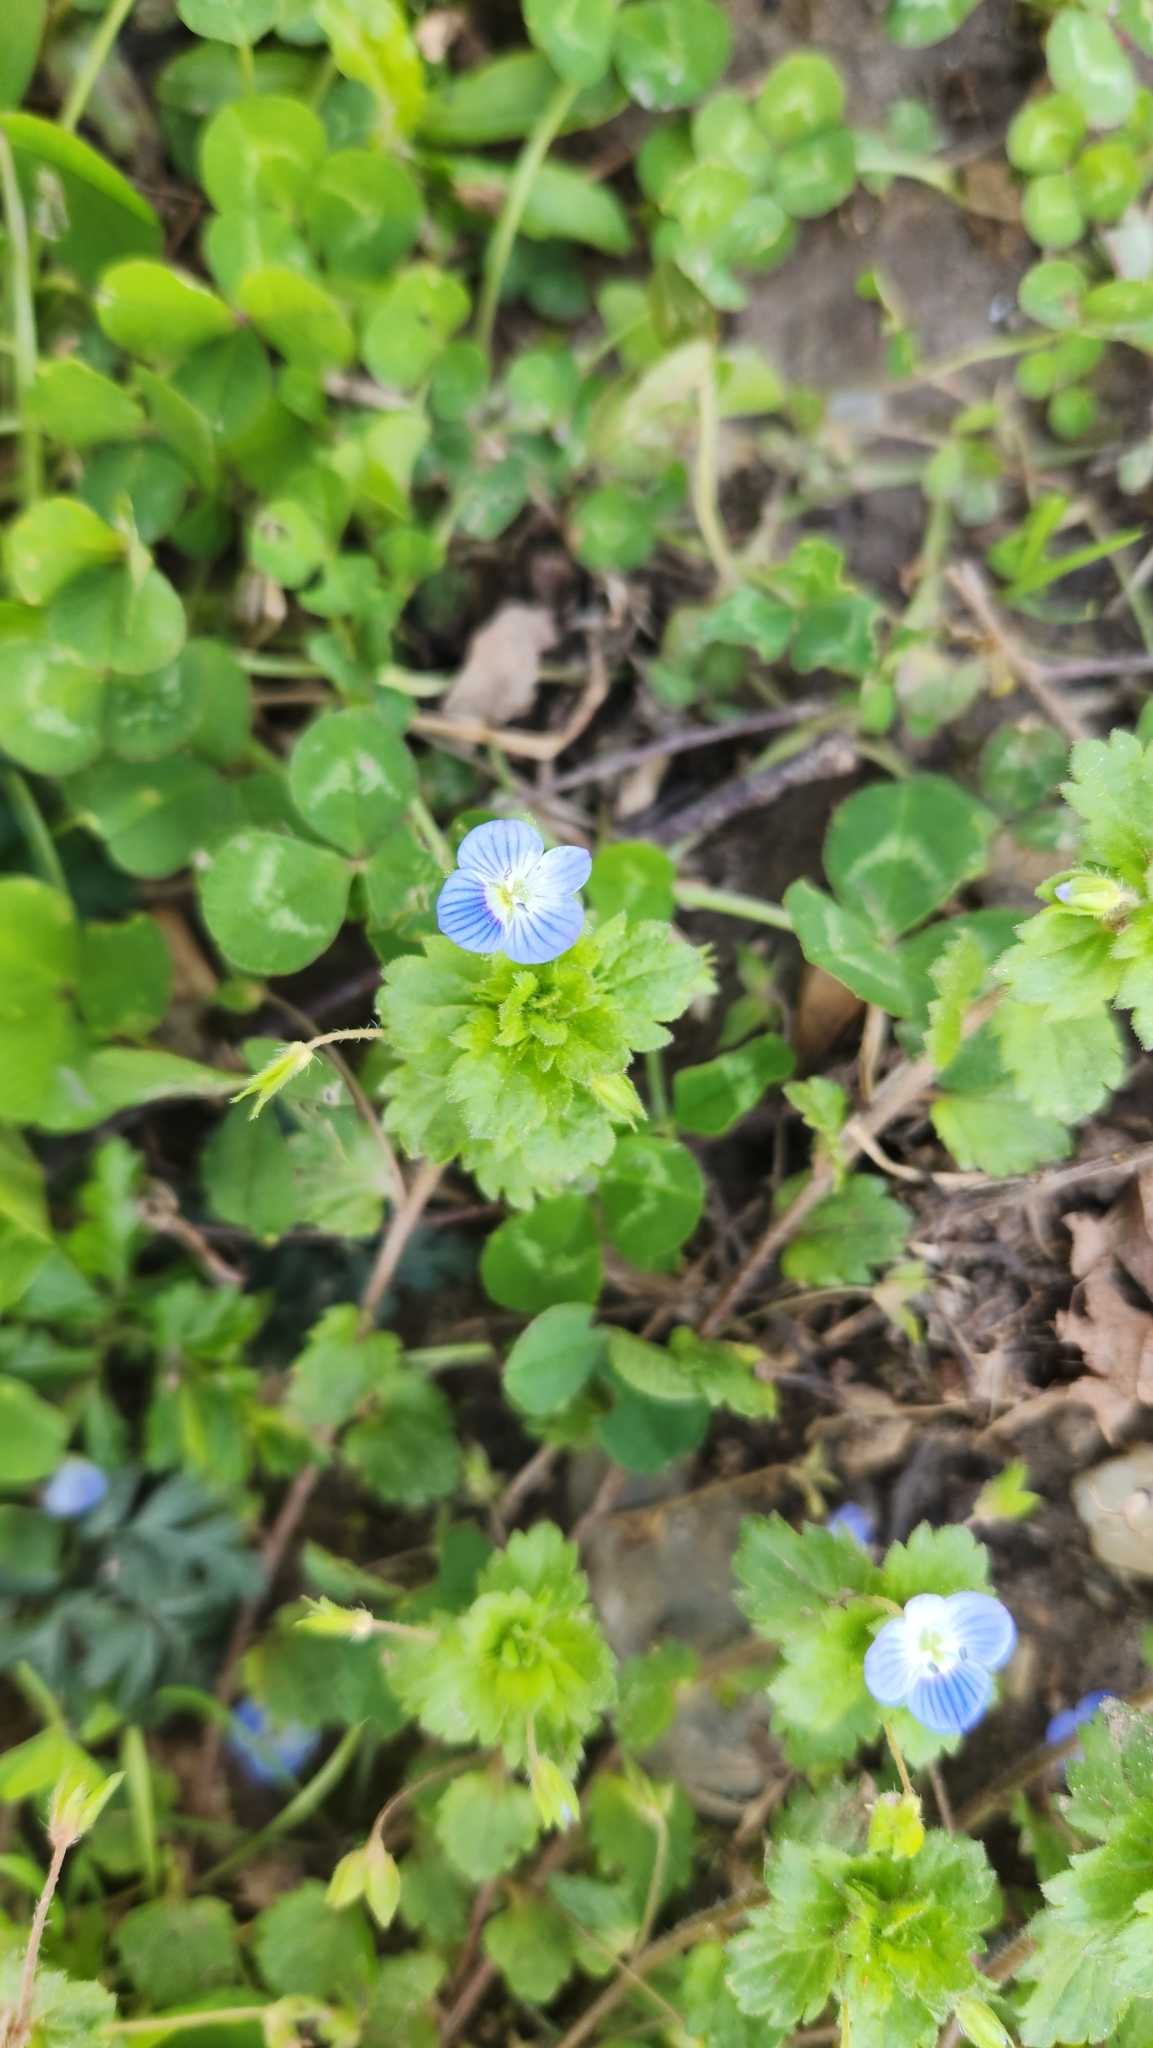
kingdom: Plantae
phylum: Tracheophyta
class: Magnoliopsida
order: Lamiales
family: Plantaginaceae
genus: Veronica
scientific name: Veronica persica
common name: Common field-speedwell
